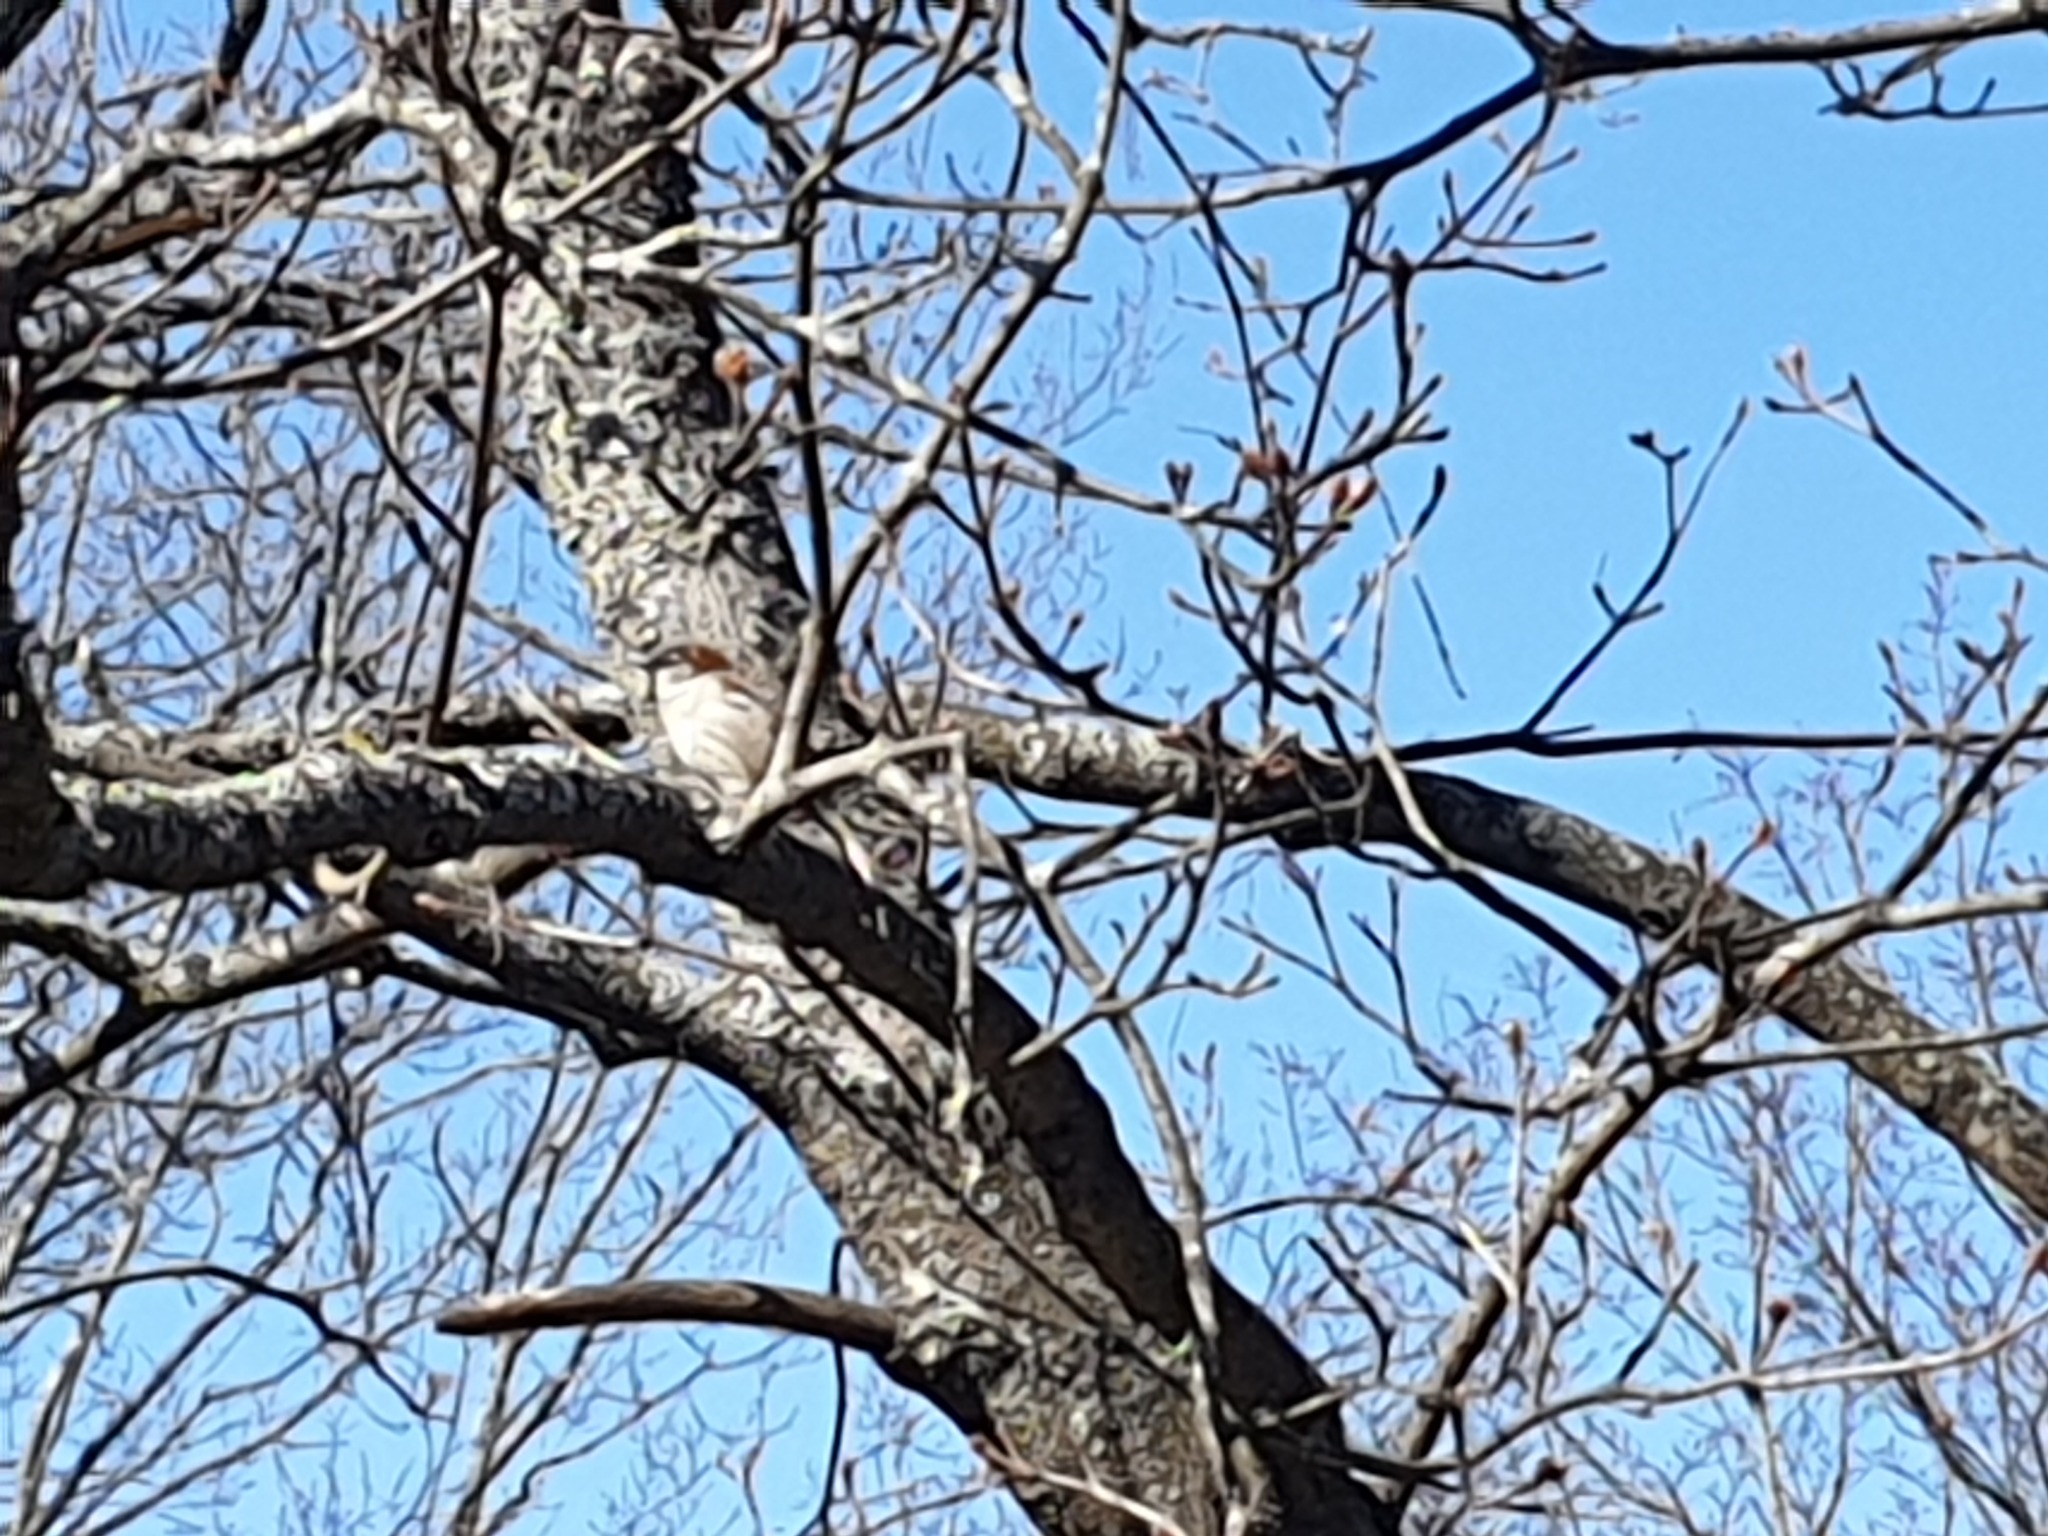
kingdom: Animalia
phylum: Chordata
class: Aves
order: Passeriformes
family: Passeridae
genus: Passer
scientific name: Passer domesticus
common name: House sparrow
